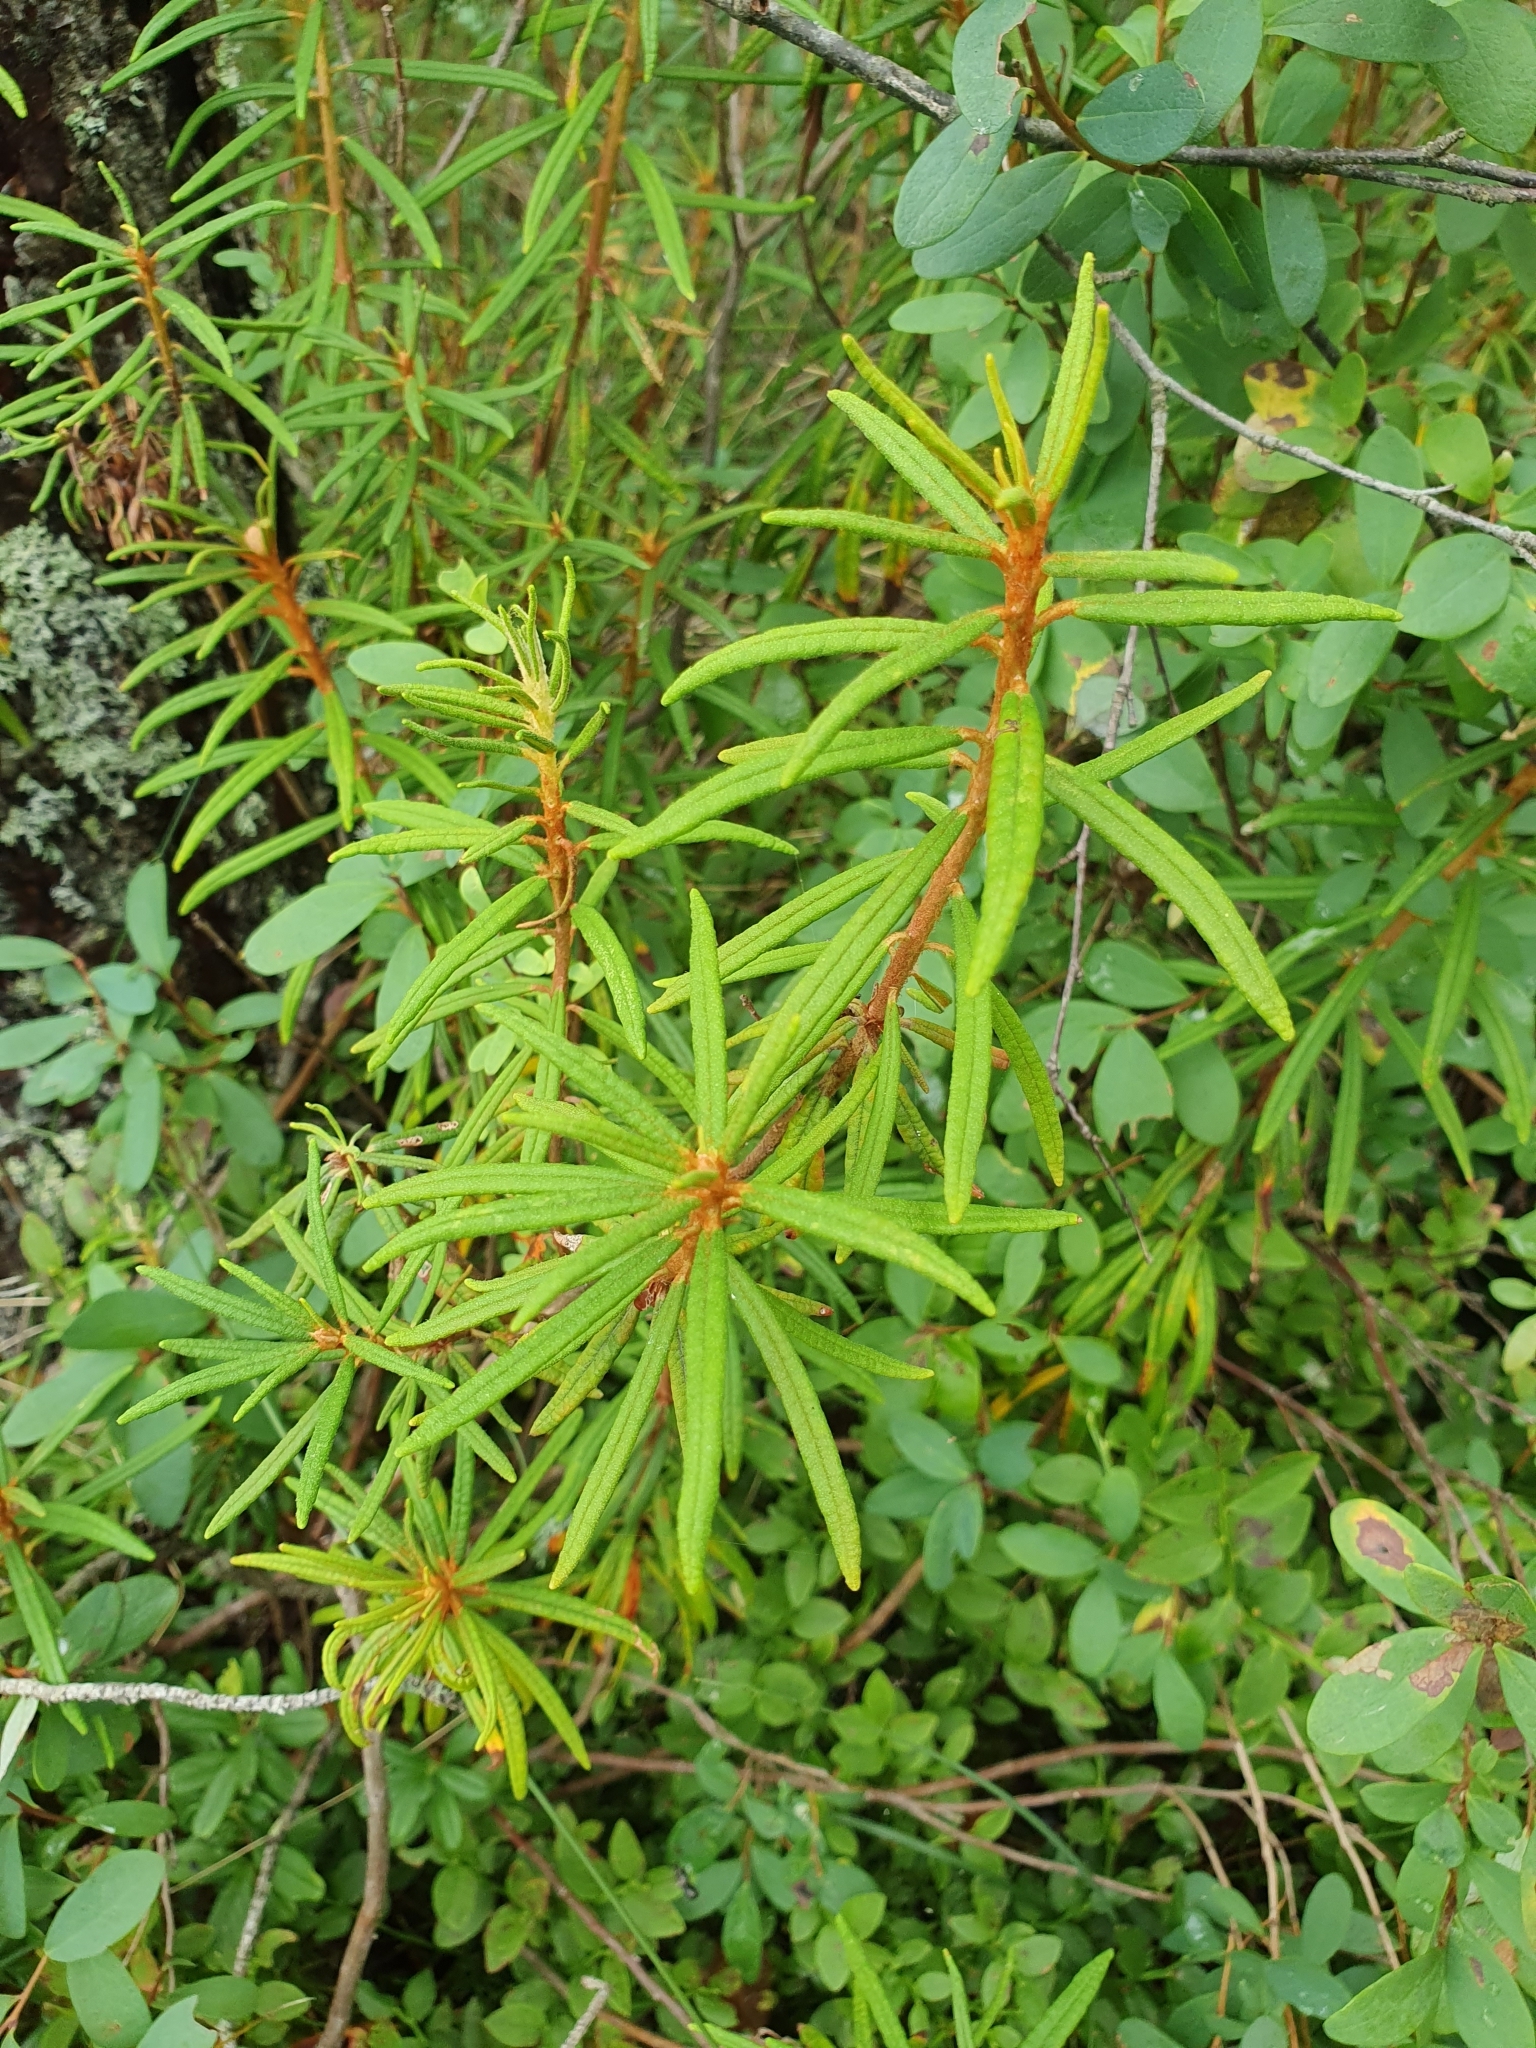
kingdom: Plantae
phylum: Tracheophyta
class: Magnoliopsida
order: Ericales
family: Ericaceae
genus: Rhododendron
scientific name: Rhododendron tomentosum
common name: Marsh labrador tea
